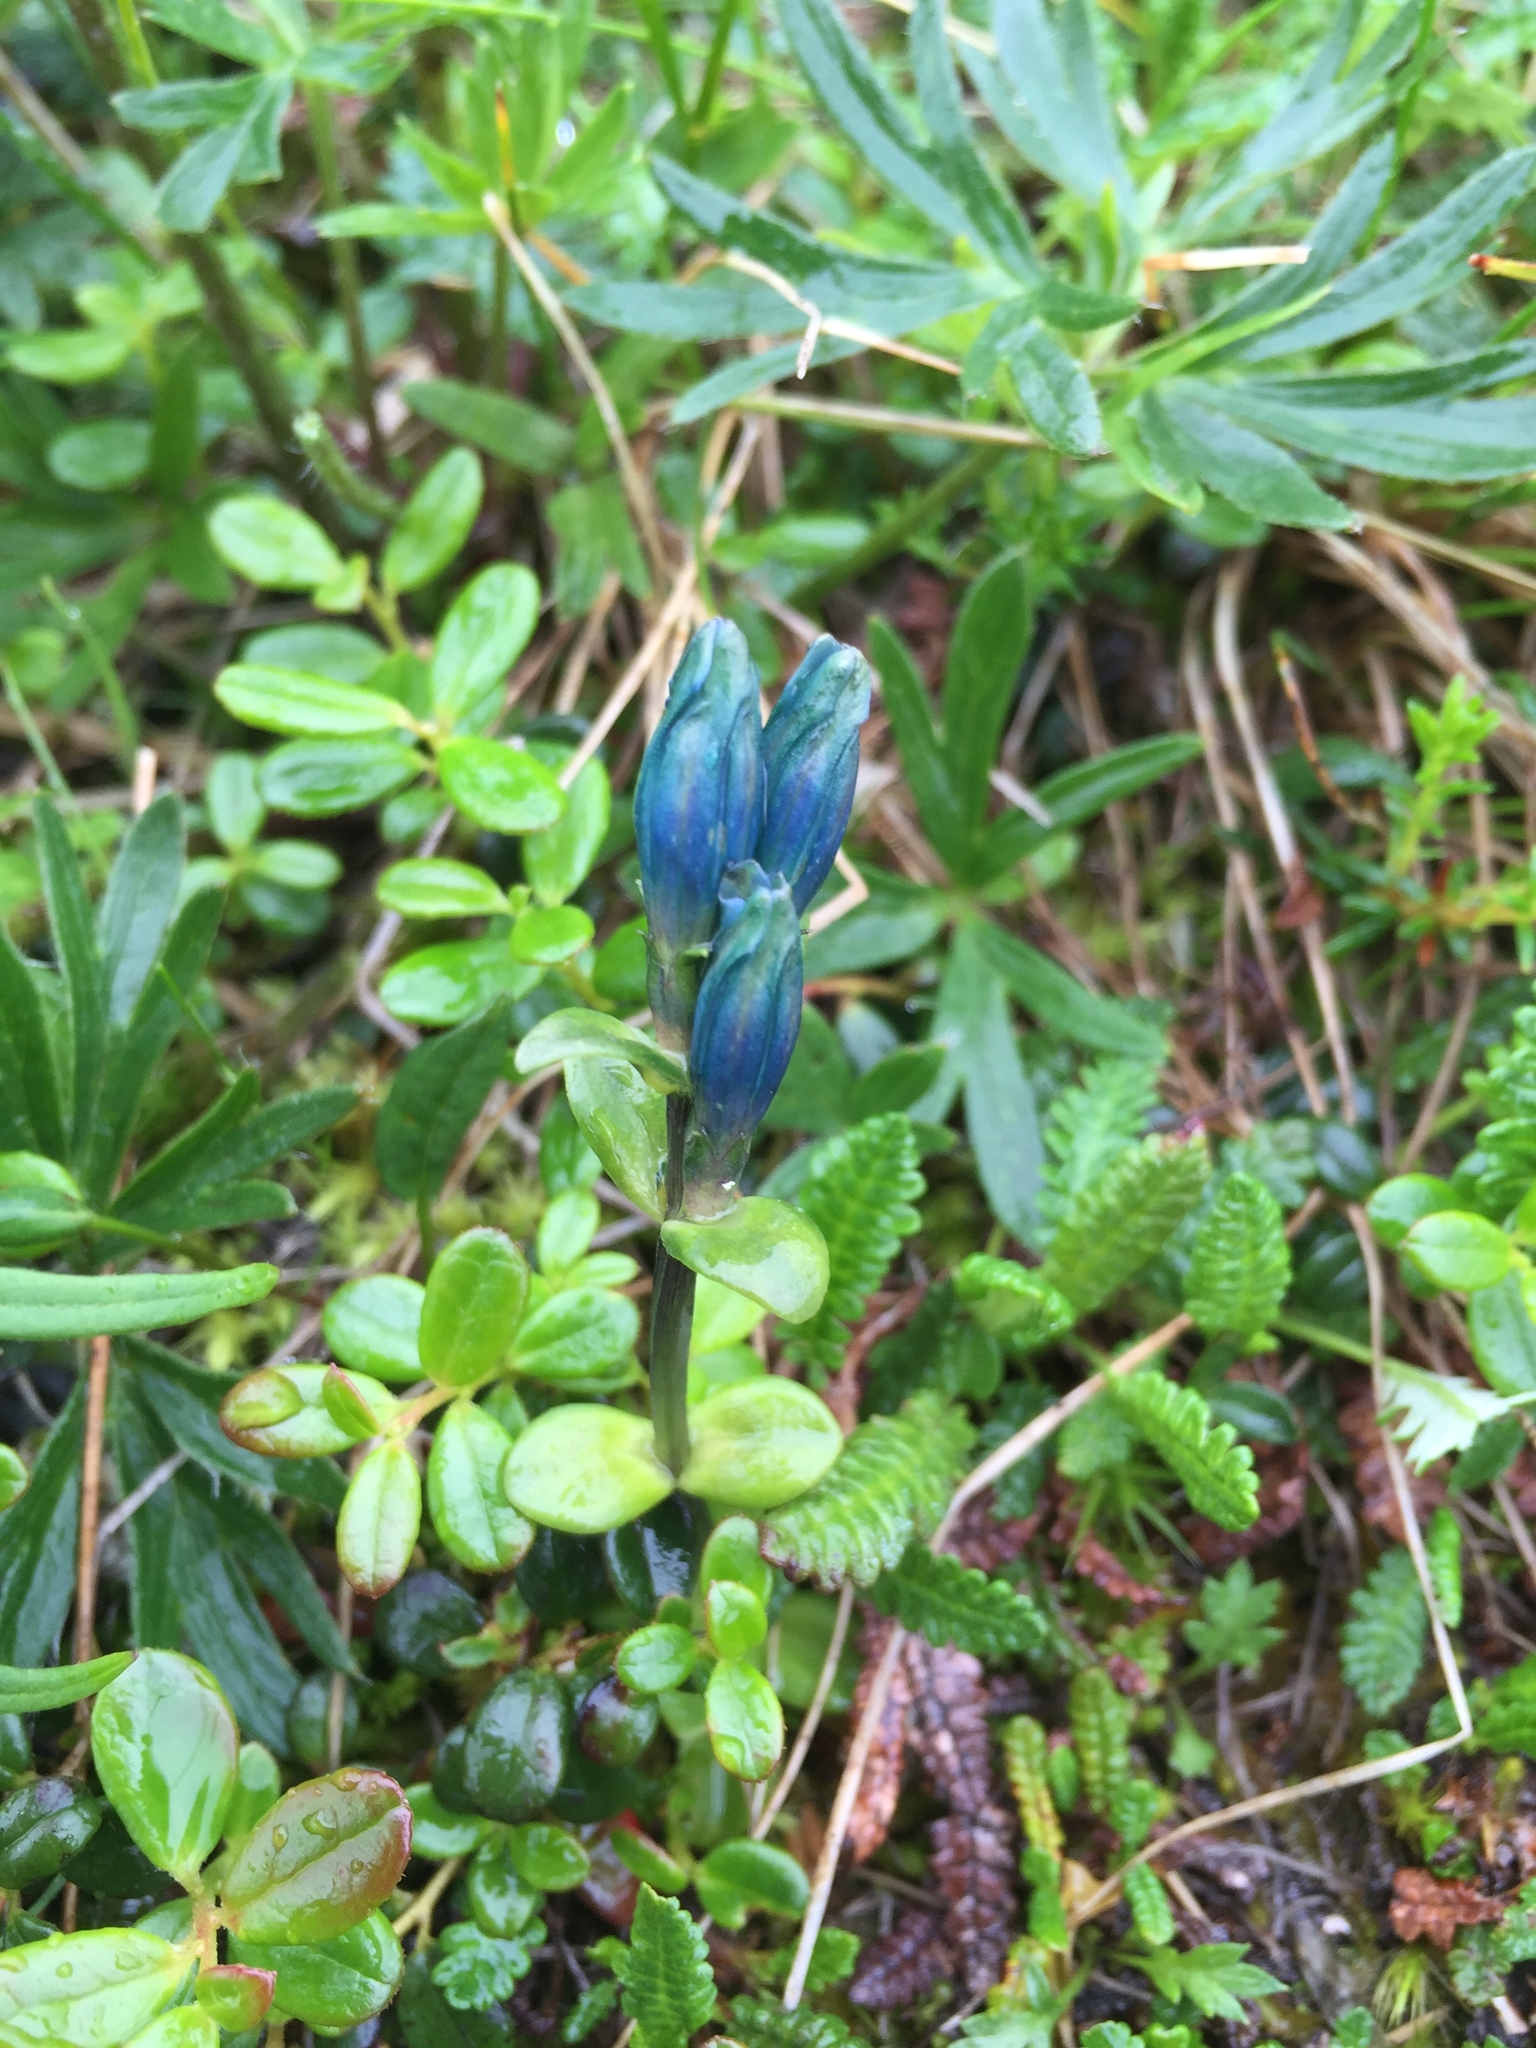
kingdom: Plantae
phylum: Tracheophyta
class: Magnoliopsida
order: Gentianales
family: Gentianaceae
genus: Gentiana
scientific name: Gentiana glauca
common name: Alpine gentian
